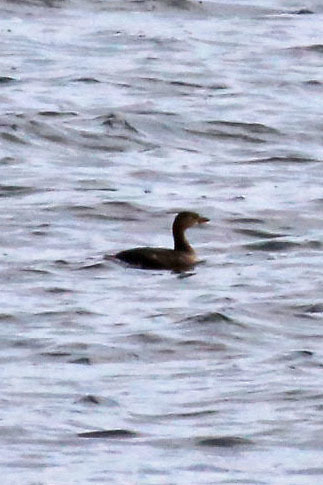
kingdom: Animalia
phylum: Chordata
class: Aves
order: Podicipediformes
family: Podicipedidae
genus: Podilymbus
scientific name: Podilymbus podiceps
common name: Pied-billed grebe
